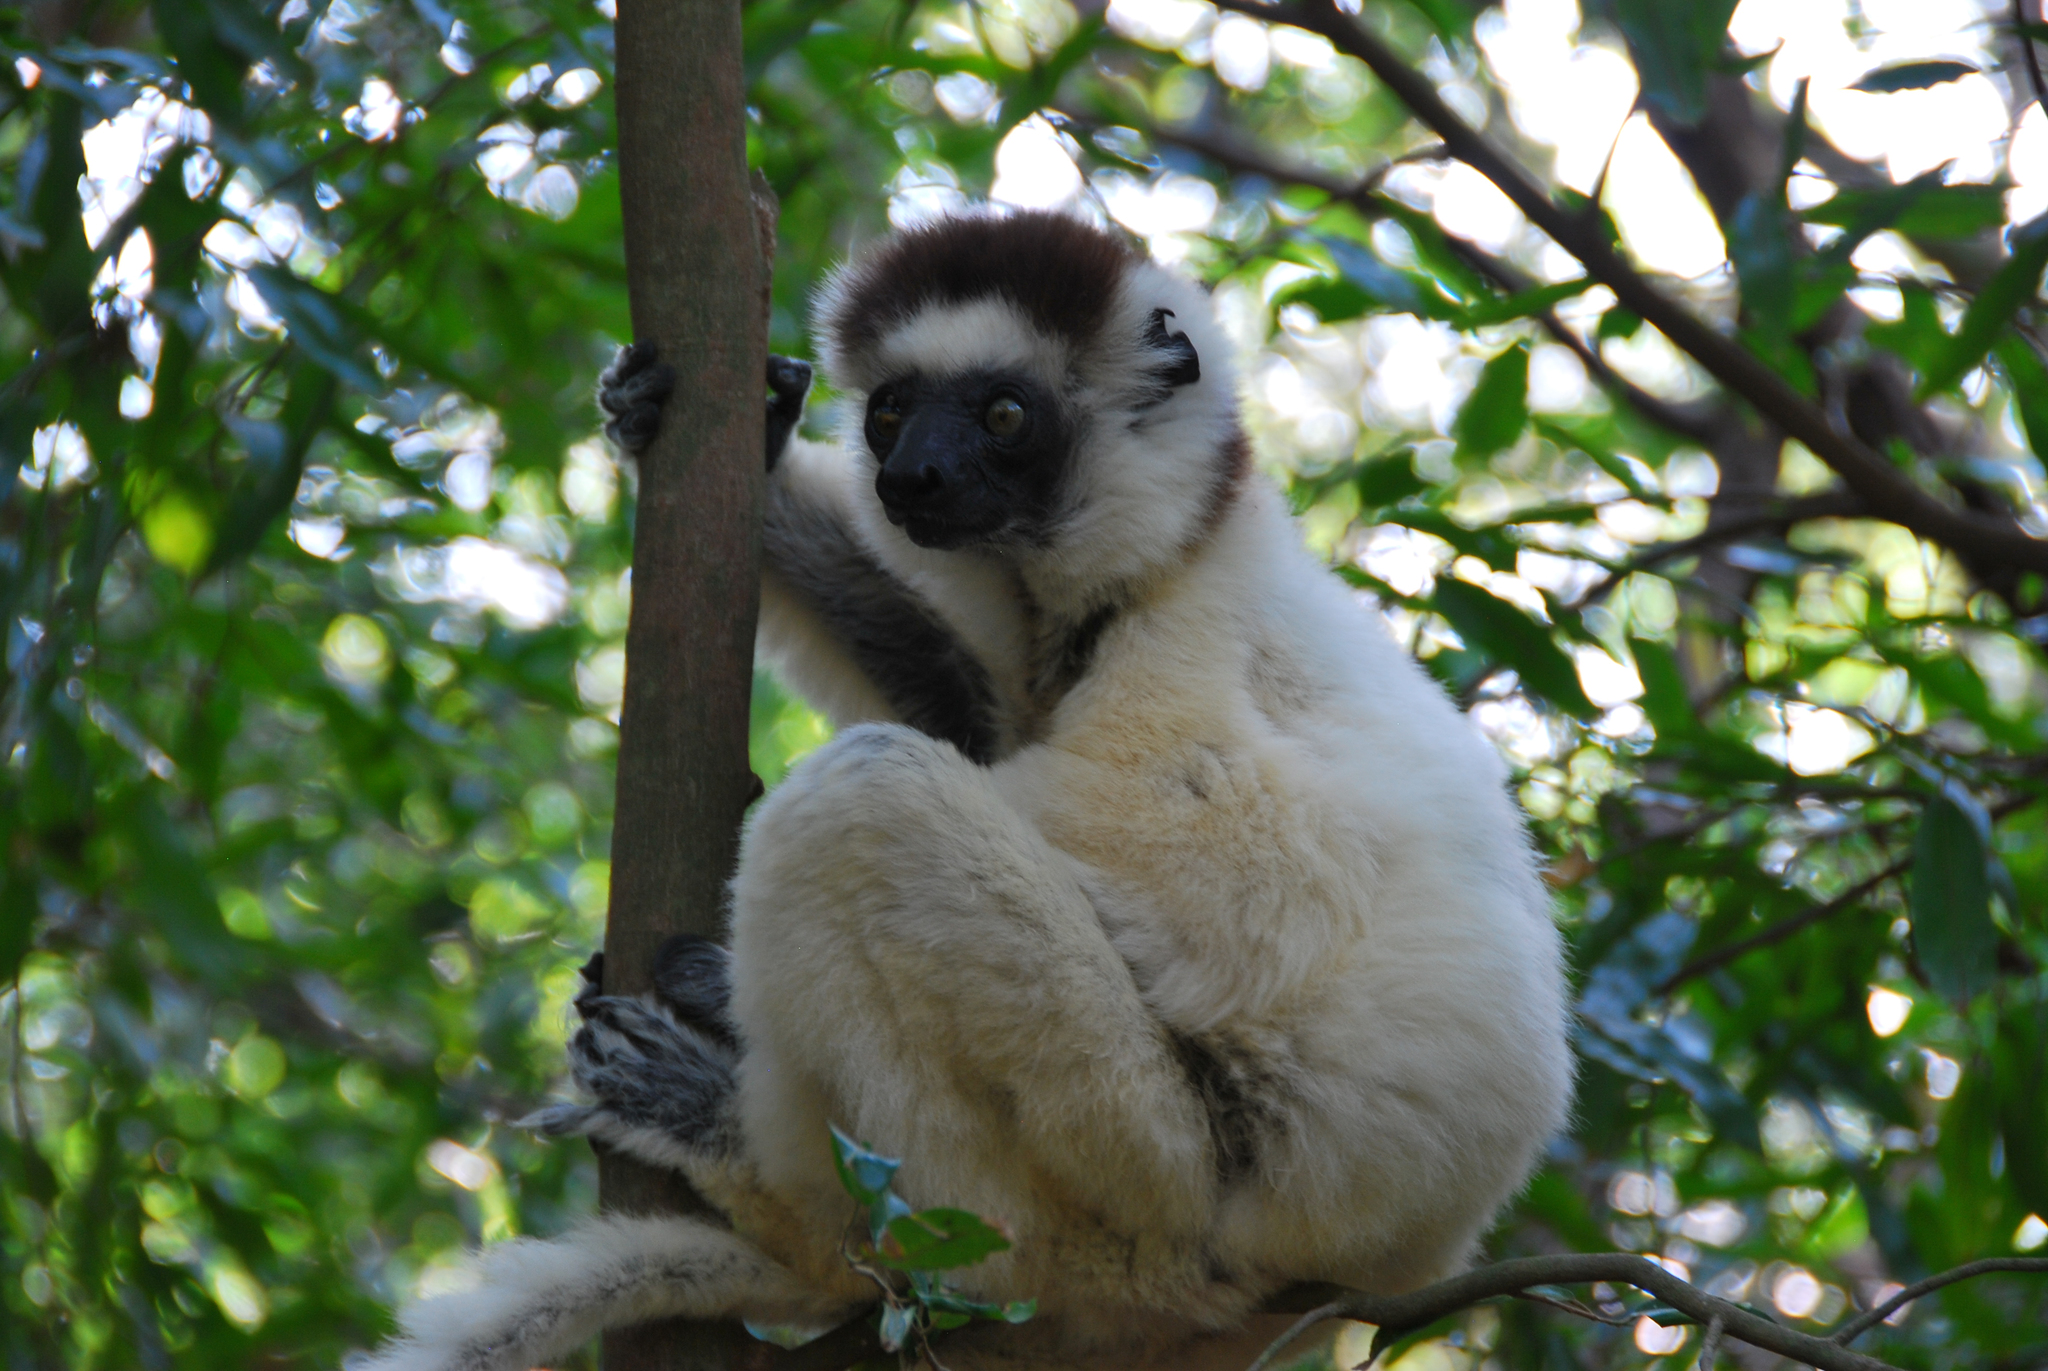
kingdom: Animalia
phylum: Chordata
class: Mammalia
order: Primates
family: Indriidae
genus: Propithecus
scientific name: Propithecus verreauxi
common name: Verreaux's sifaka
